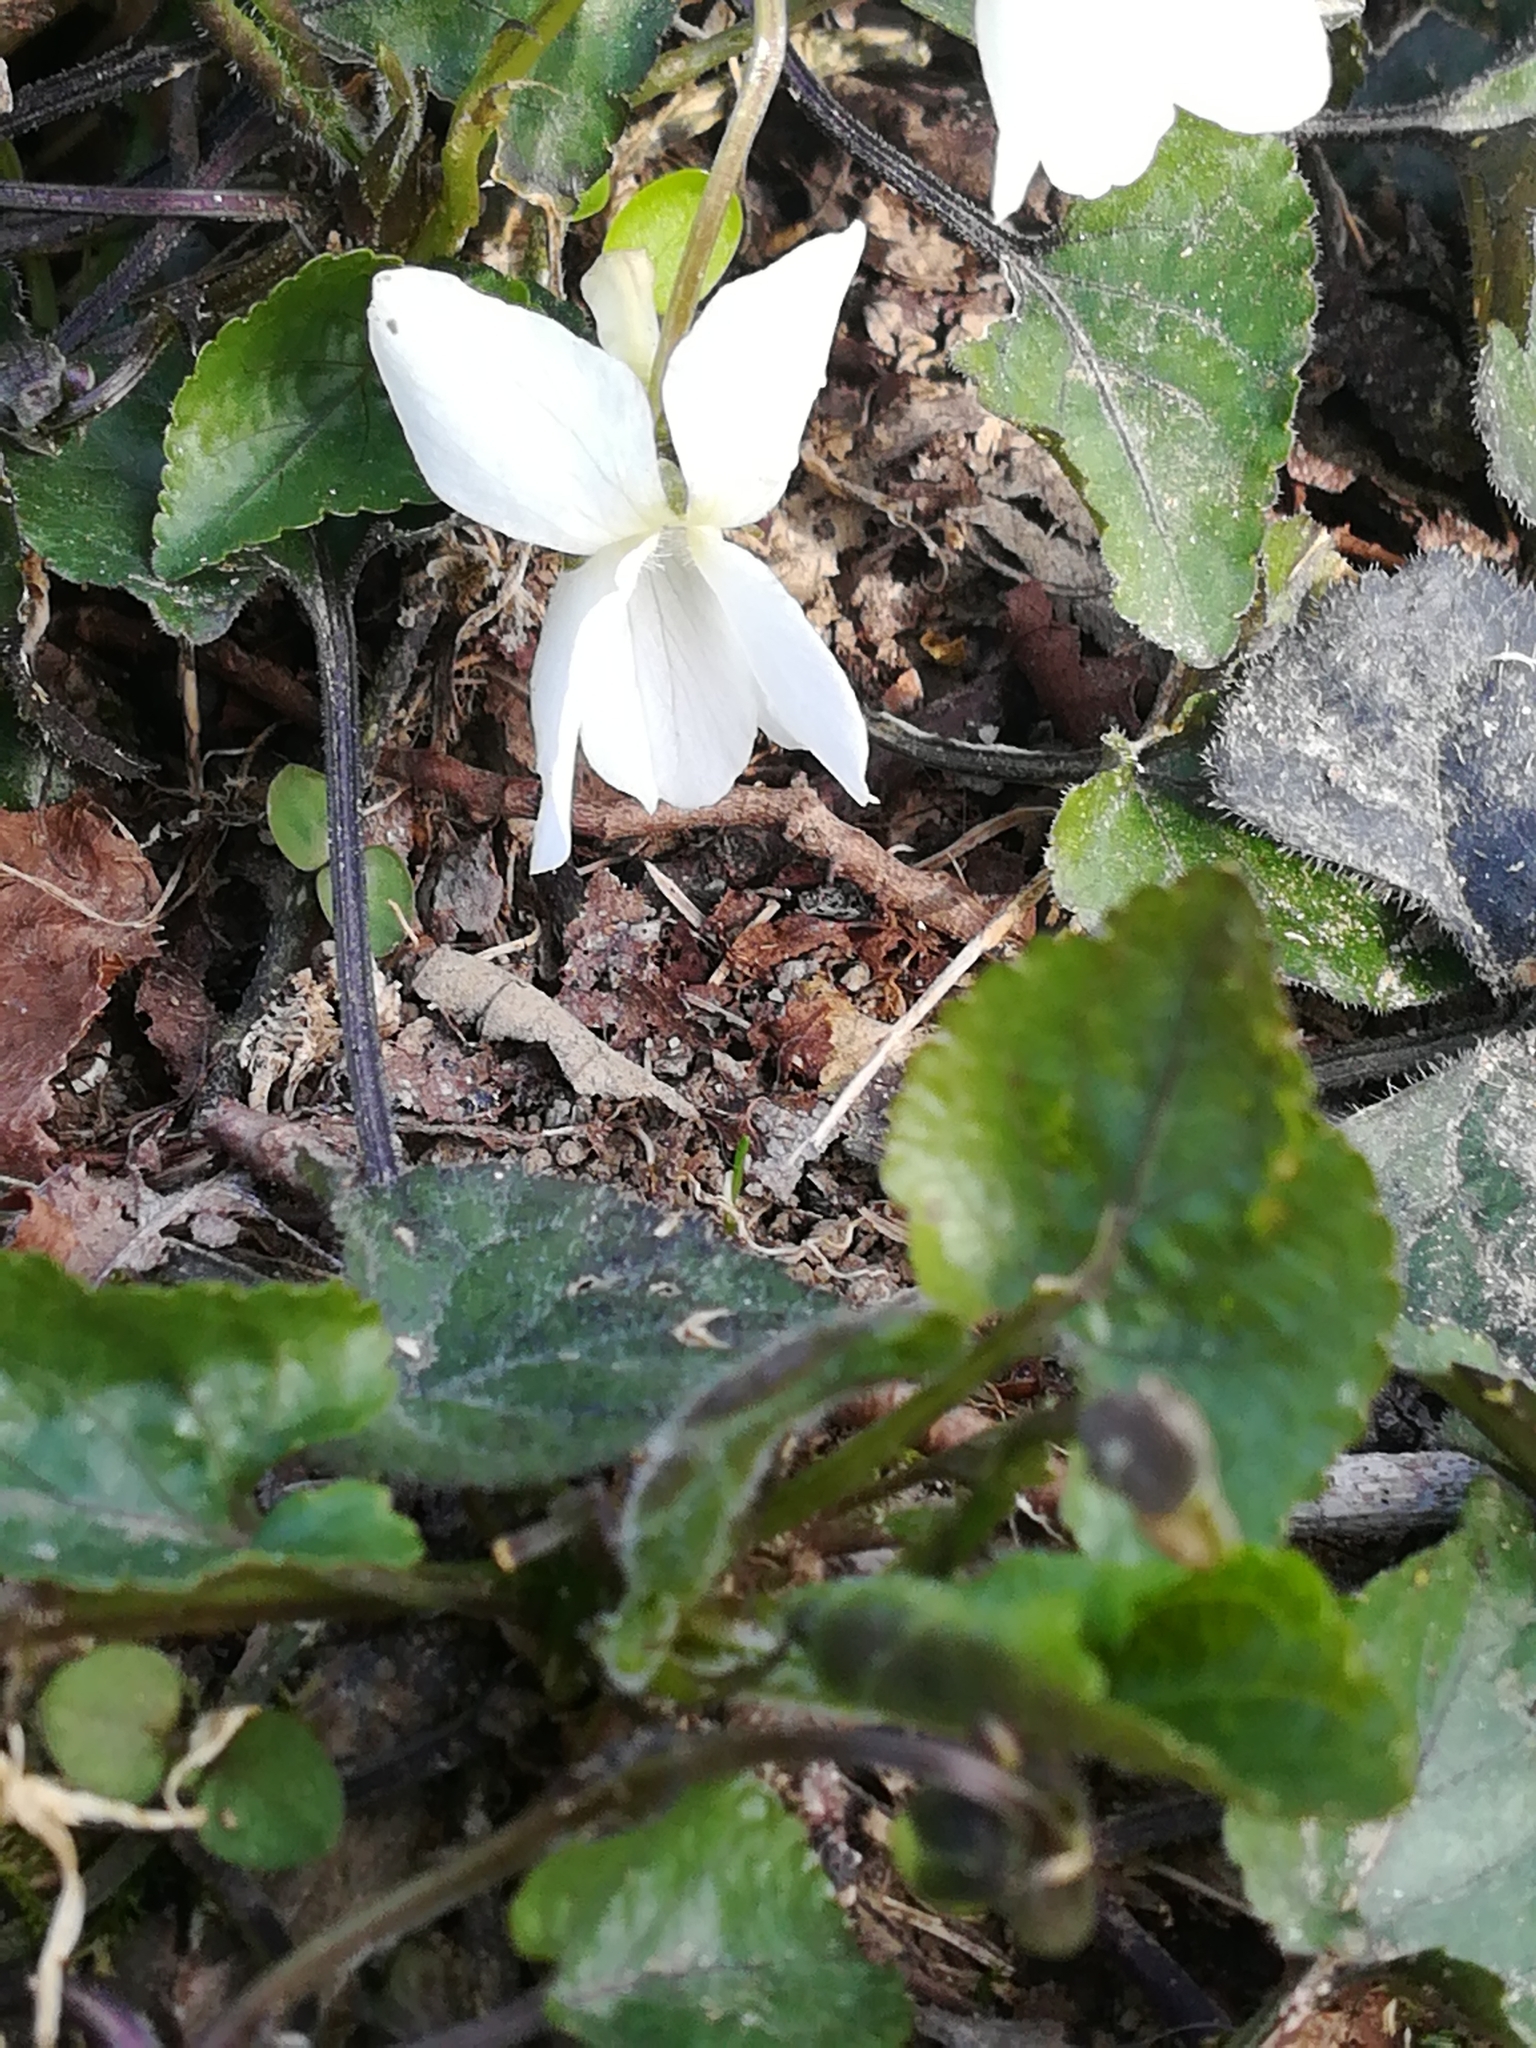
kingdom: Plantae
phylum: Tracheophyta
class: Magnoliopsida
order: Malpighiales
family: Violaceae
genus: Viola
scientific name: Viola alba
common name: White violet
